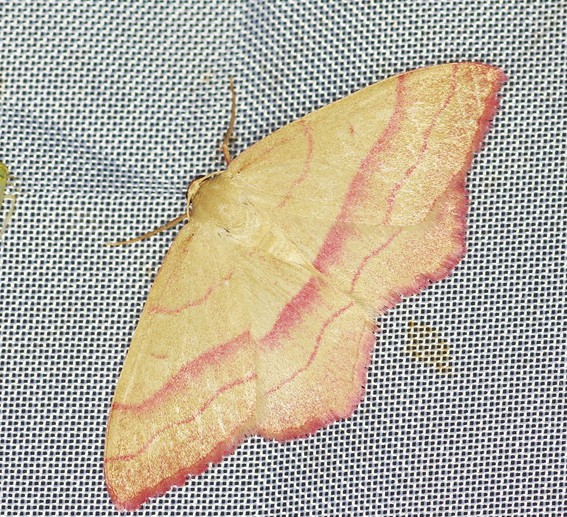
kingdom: Animalia
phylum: Arthropoda
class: Insecta
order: Lepidoptera
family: Geometridae
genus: Rhodostrophia
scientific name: Rhodostrophia vibicaria
